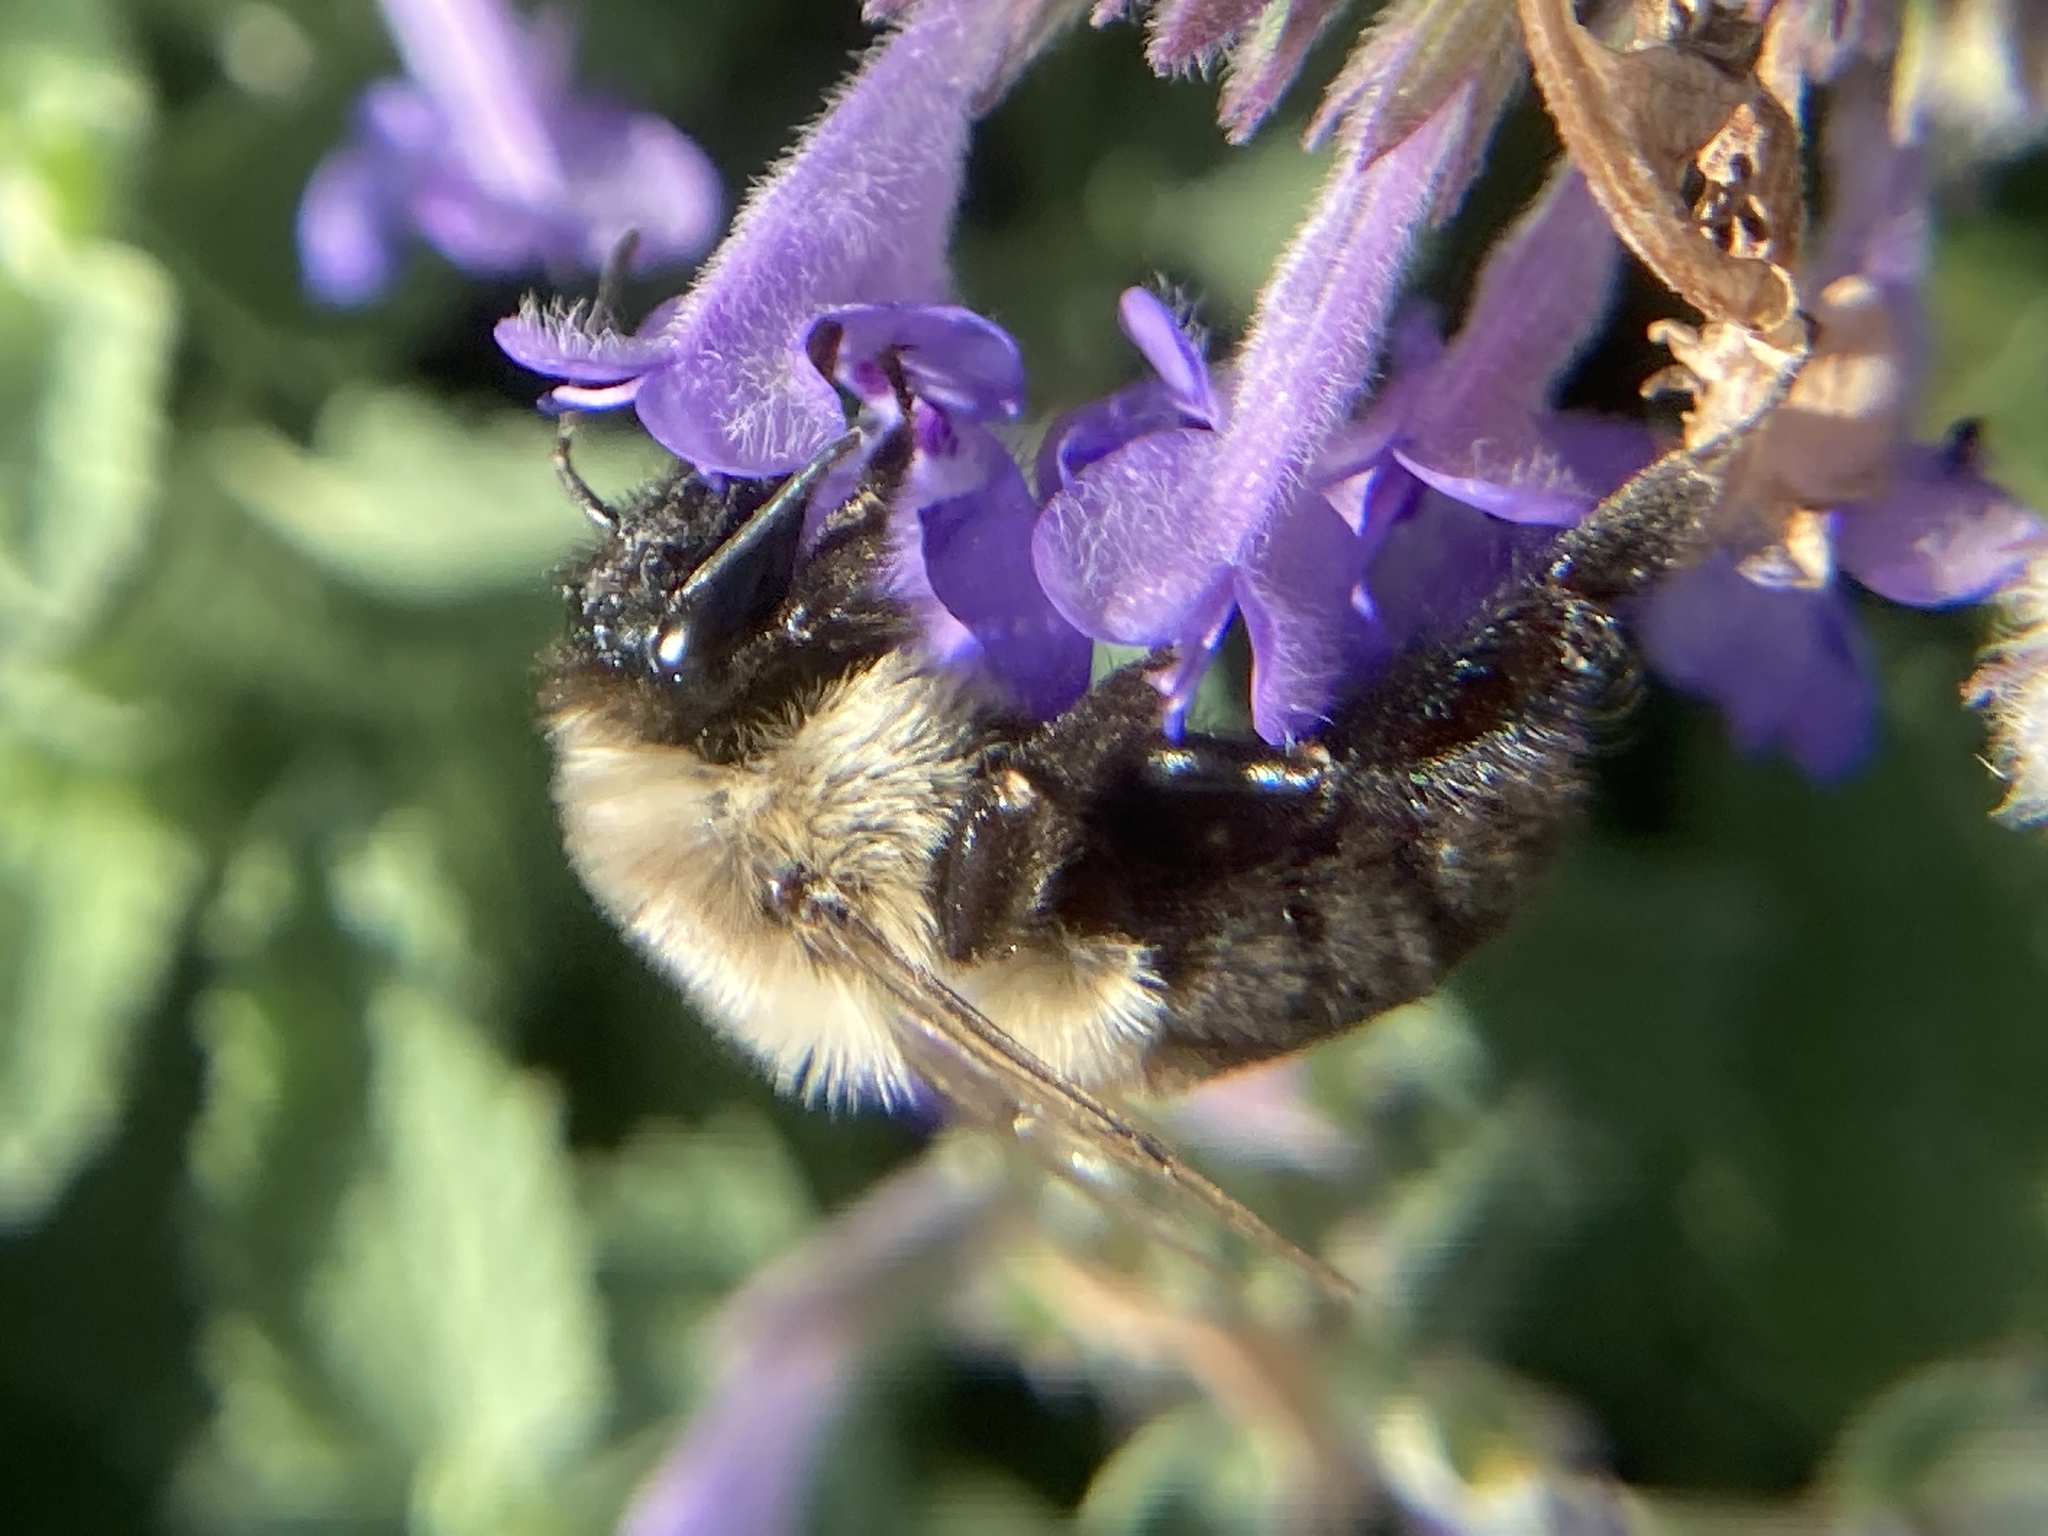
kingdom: Animalia
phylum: Arthropoda
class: Insecta
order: Hymenoptera
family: Apidae
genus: Bombus
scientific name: Bombus impatiens
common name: Common eastern bumble bee
